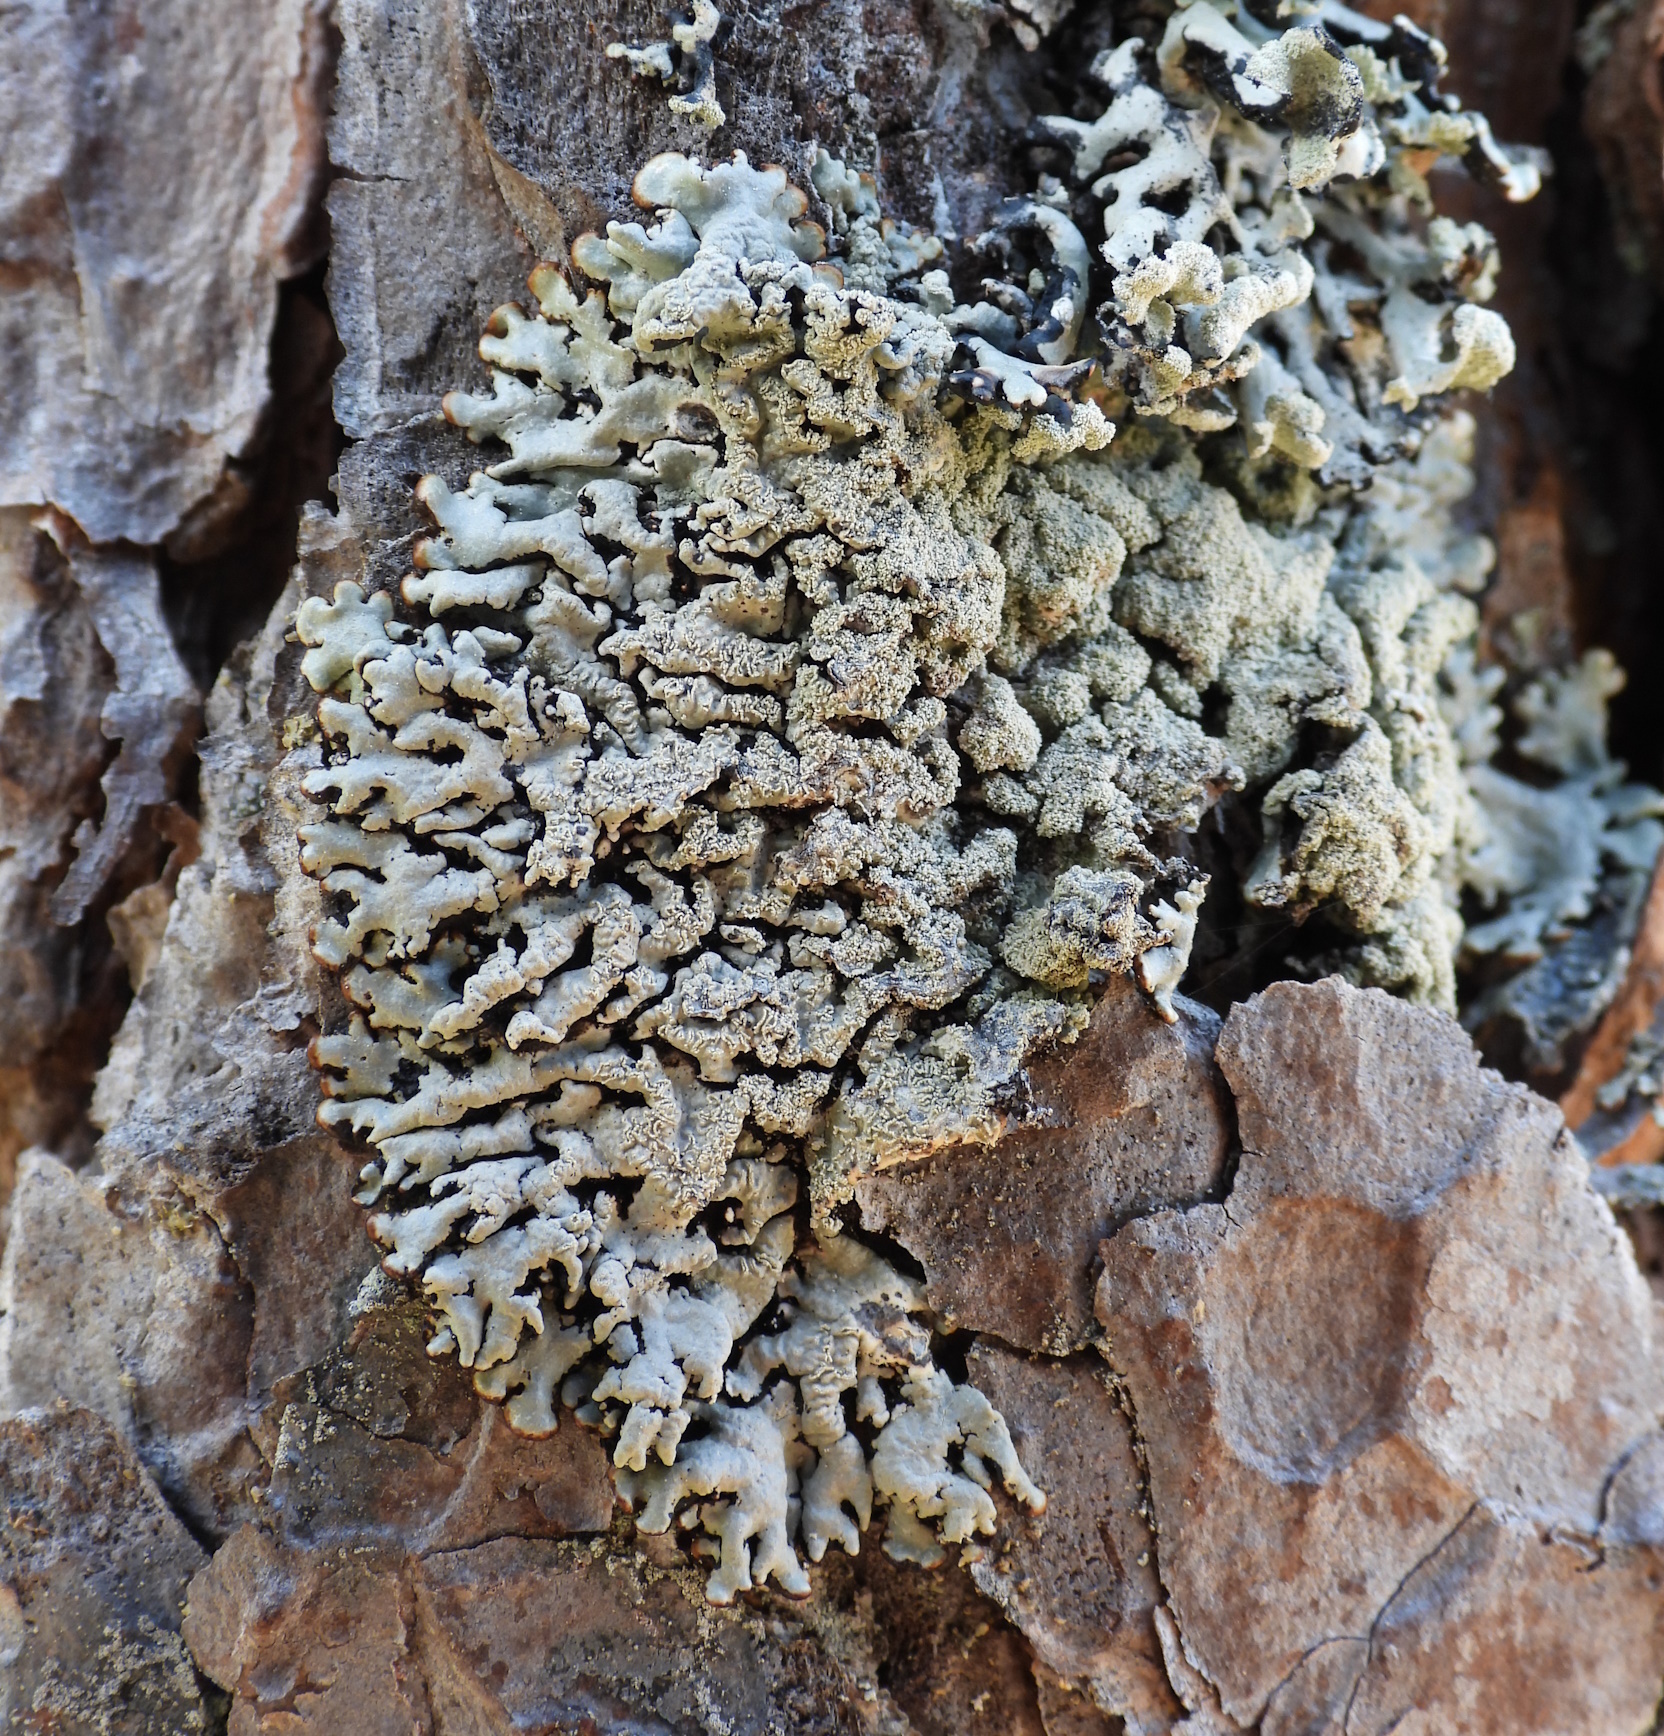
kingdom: Fungi
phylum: Ascomycota
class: Lecanoromycetes
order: Lecanorales
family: Parmeliaceae
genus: Hypogymnia
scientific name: Hypogymnia farinacea
